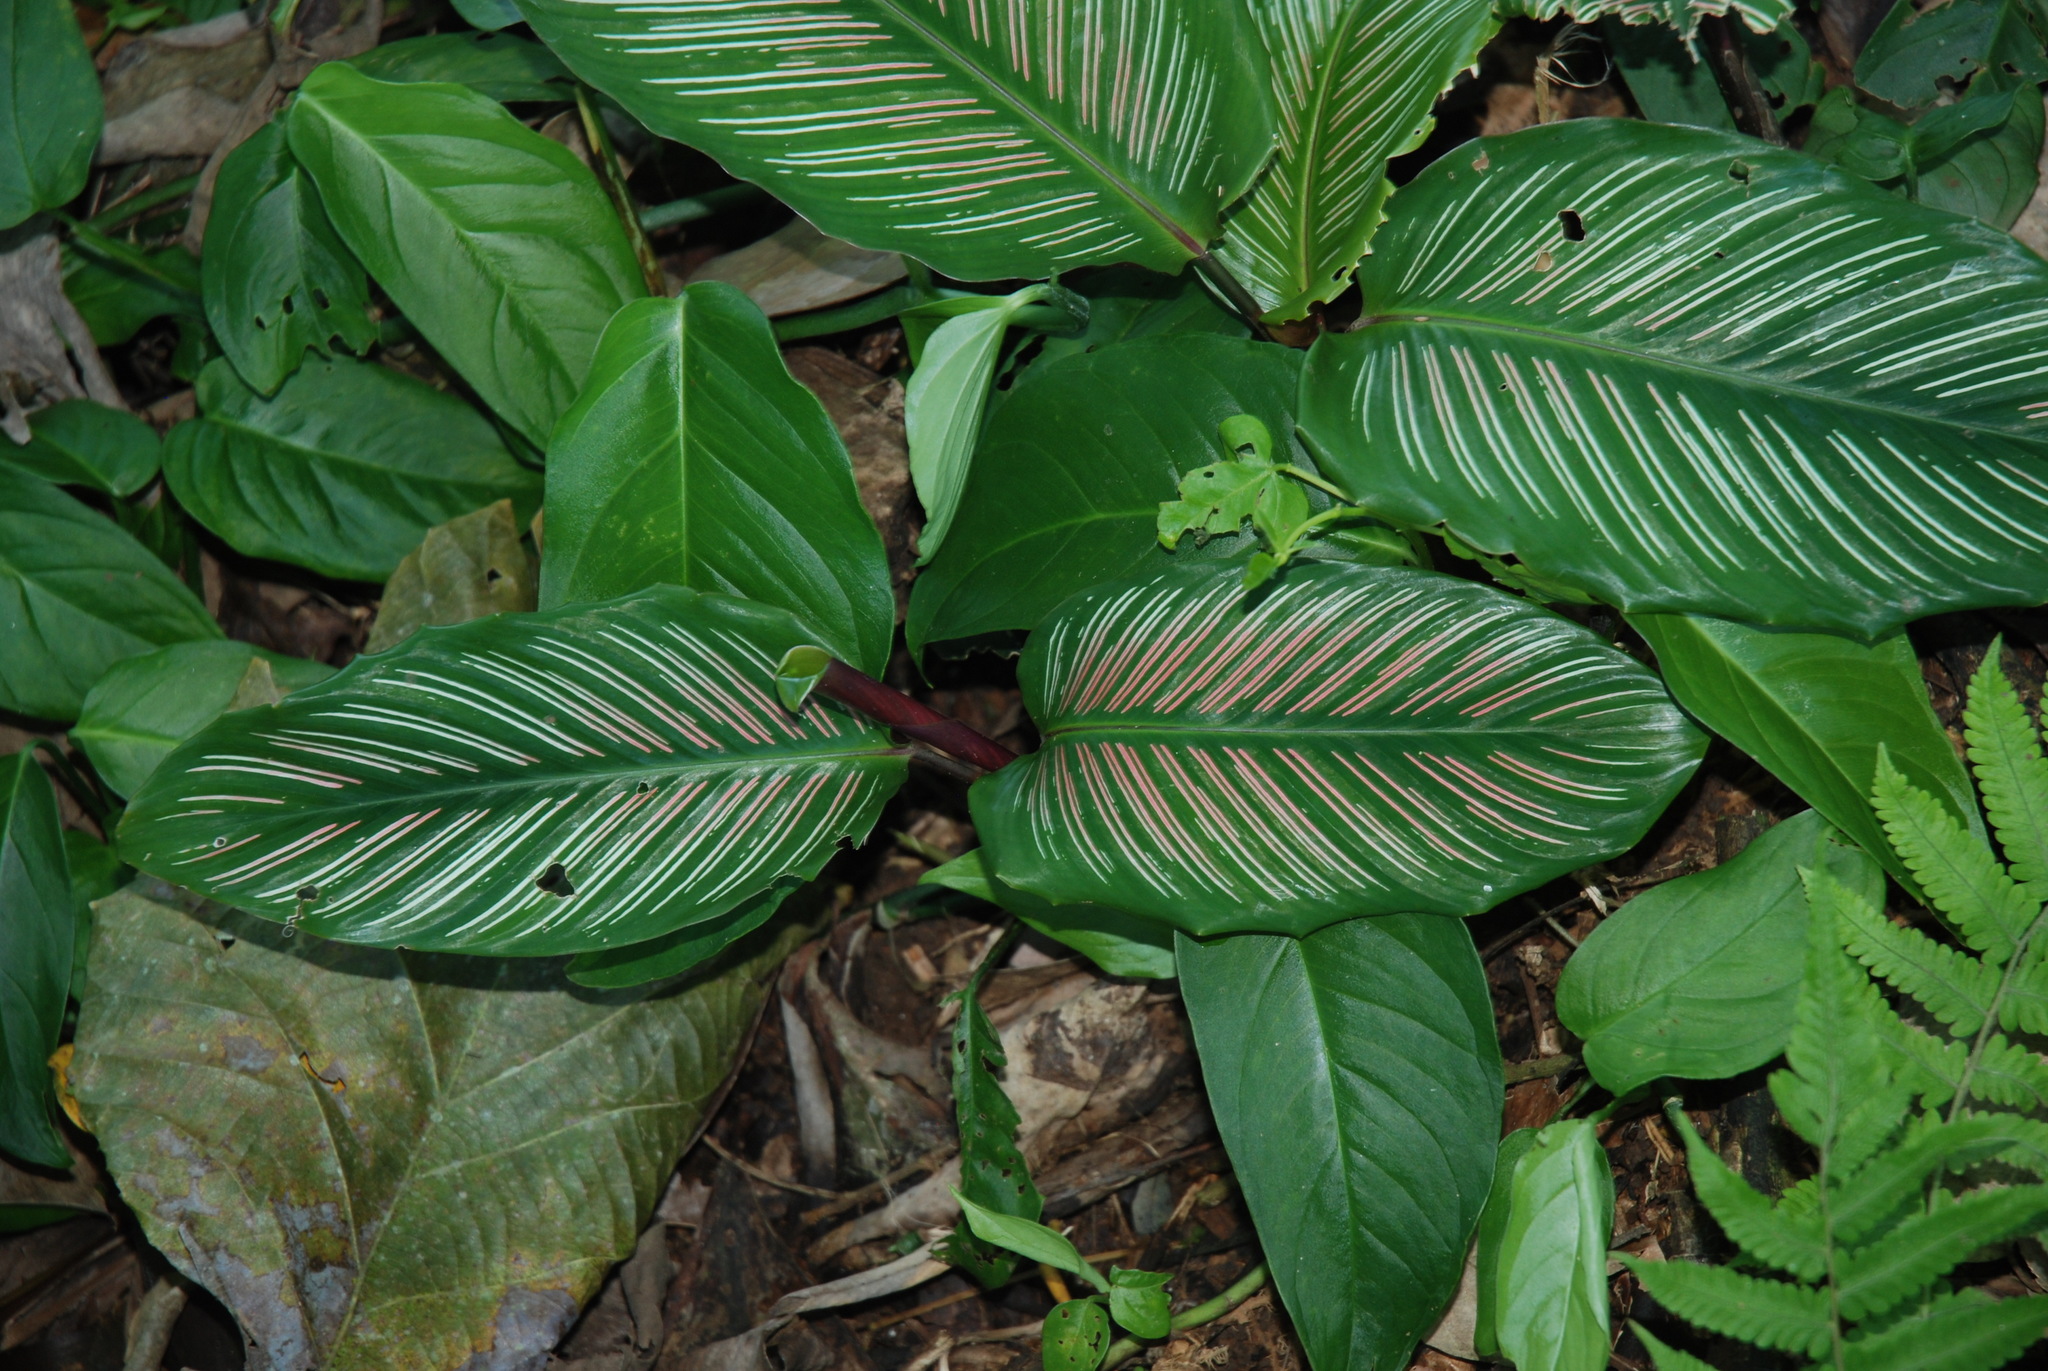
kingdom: Plantae
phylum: Tracheophyta
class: Liliopsida
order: Zingiberales
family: Marantaceae
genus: Goeppertia
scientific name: Goeppertia ornata
